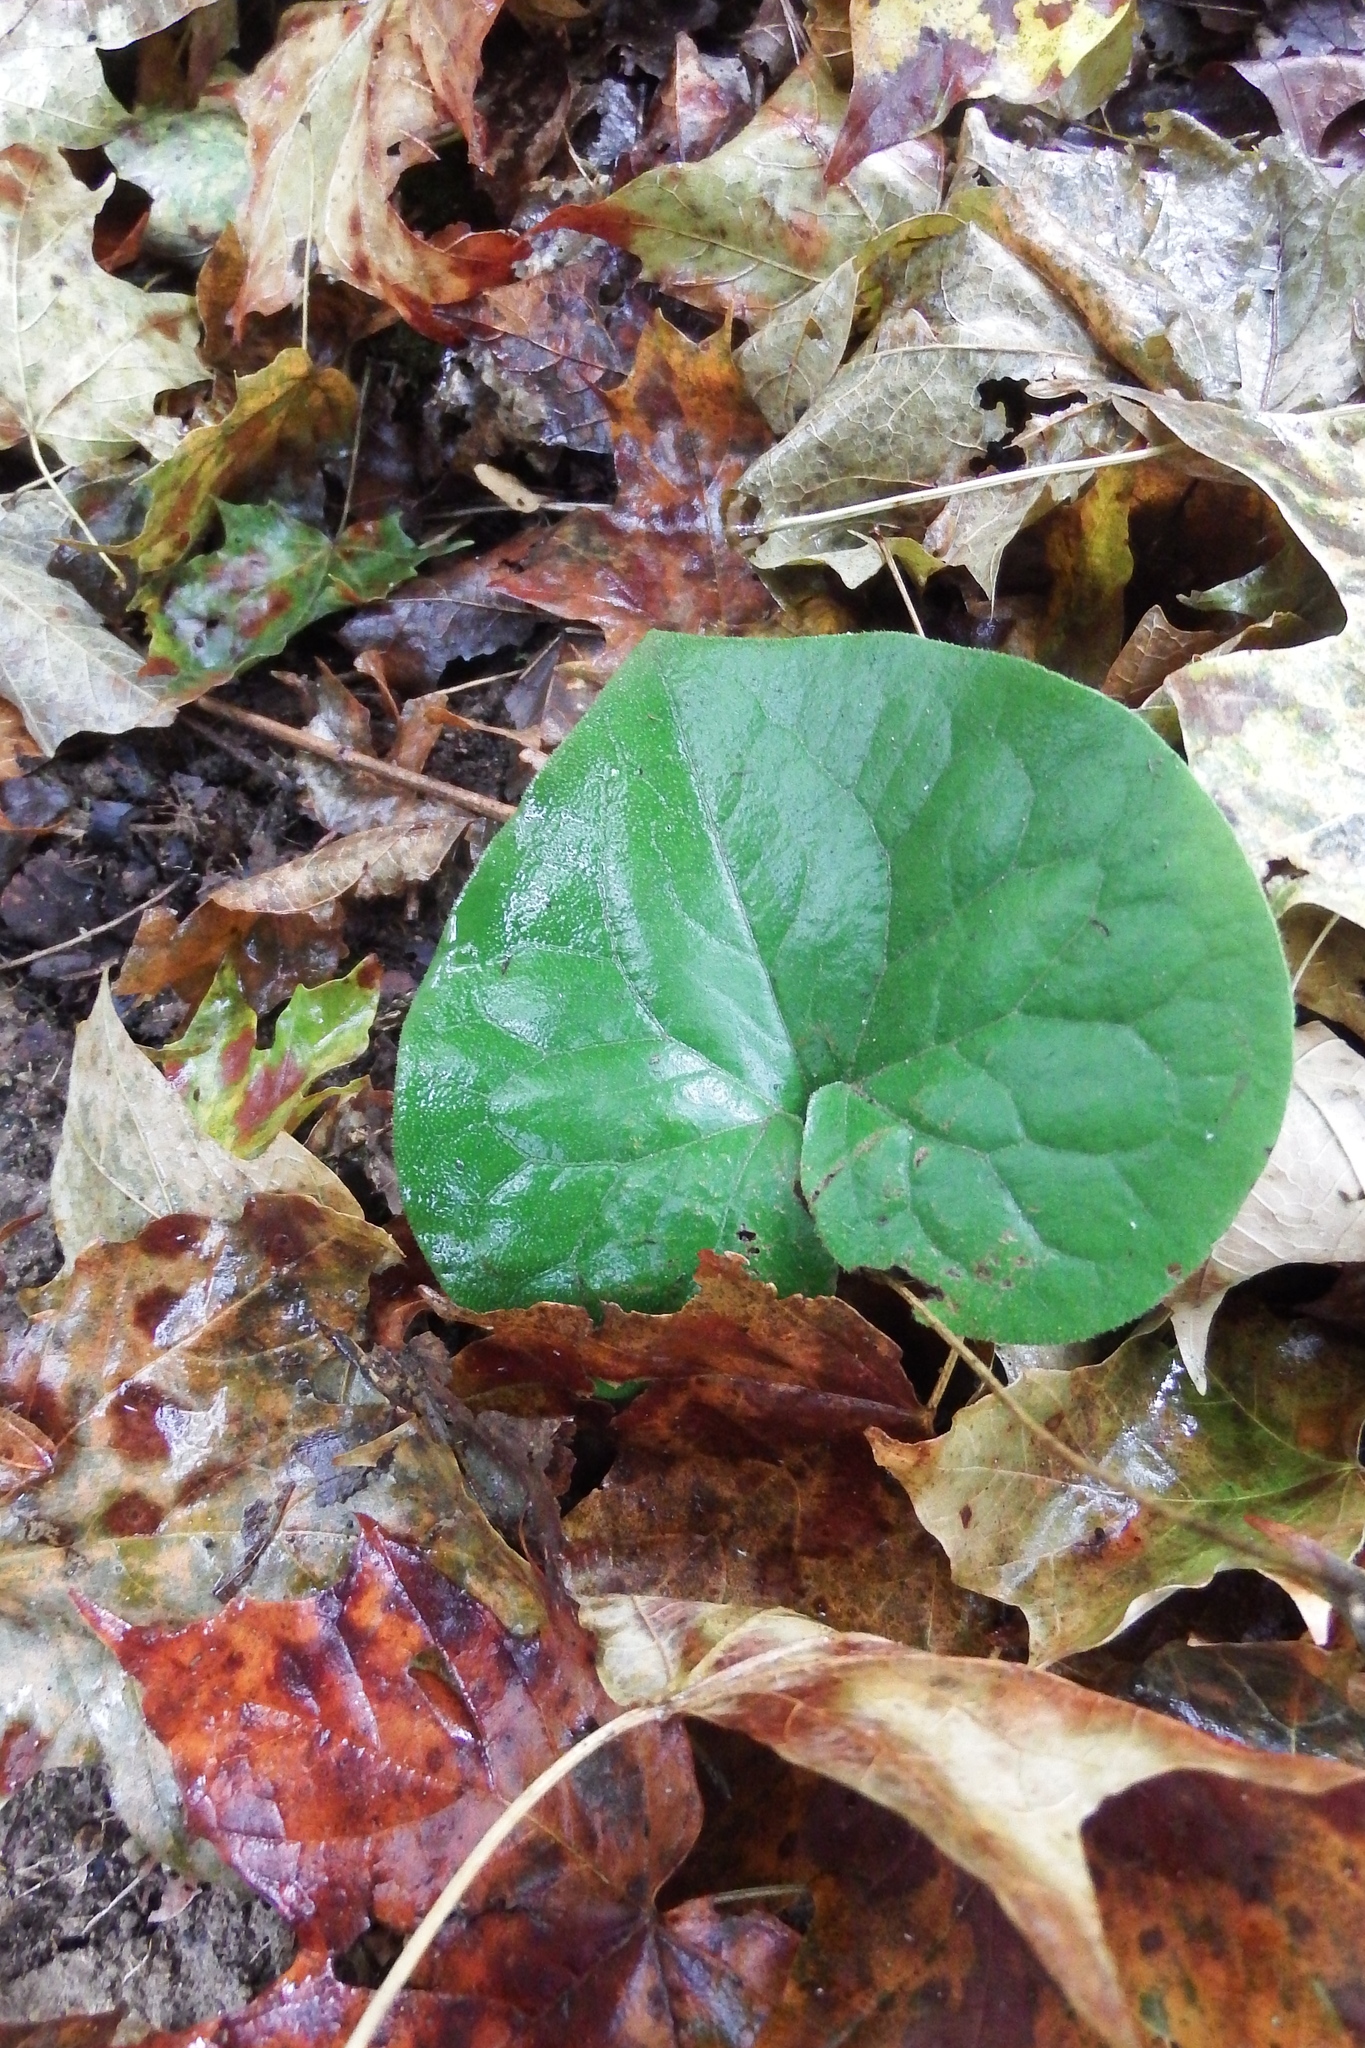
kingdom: Plantae
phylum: Tracheophyta
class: Magnoliopsida
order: Piperales
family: Aristolochiaceae
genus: Asarum
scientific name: Asarum canadense
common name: Wild ginger
